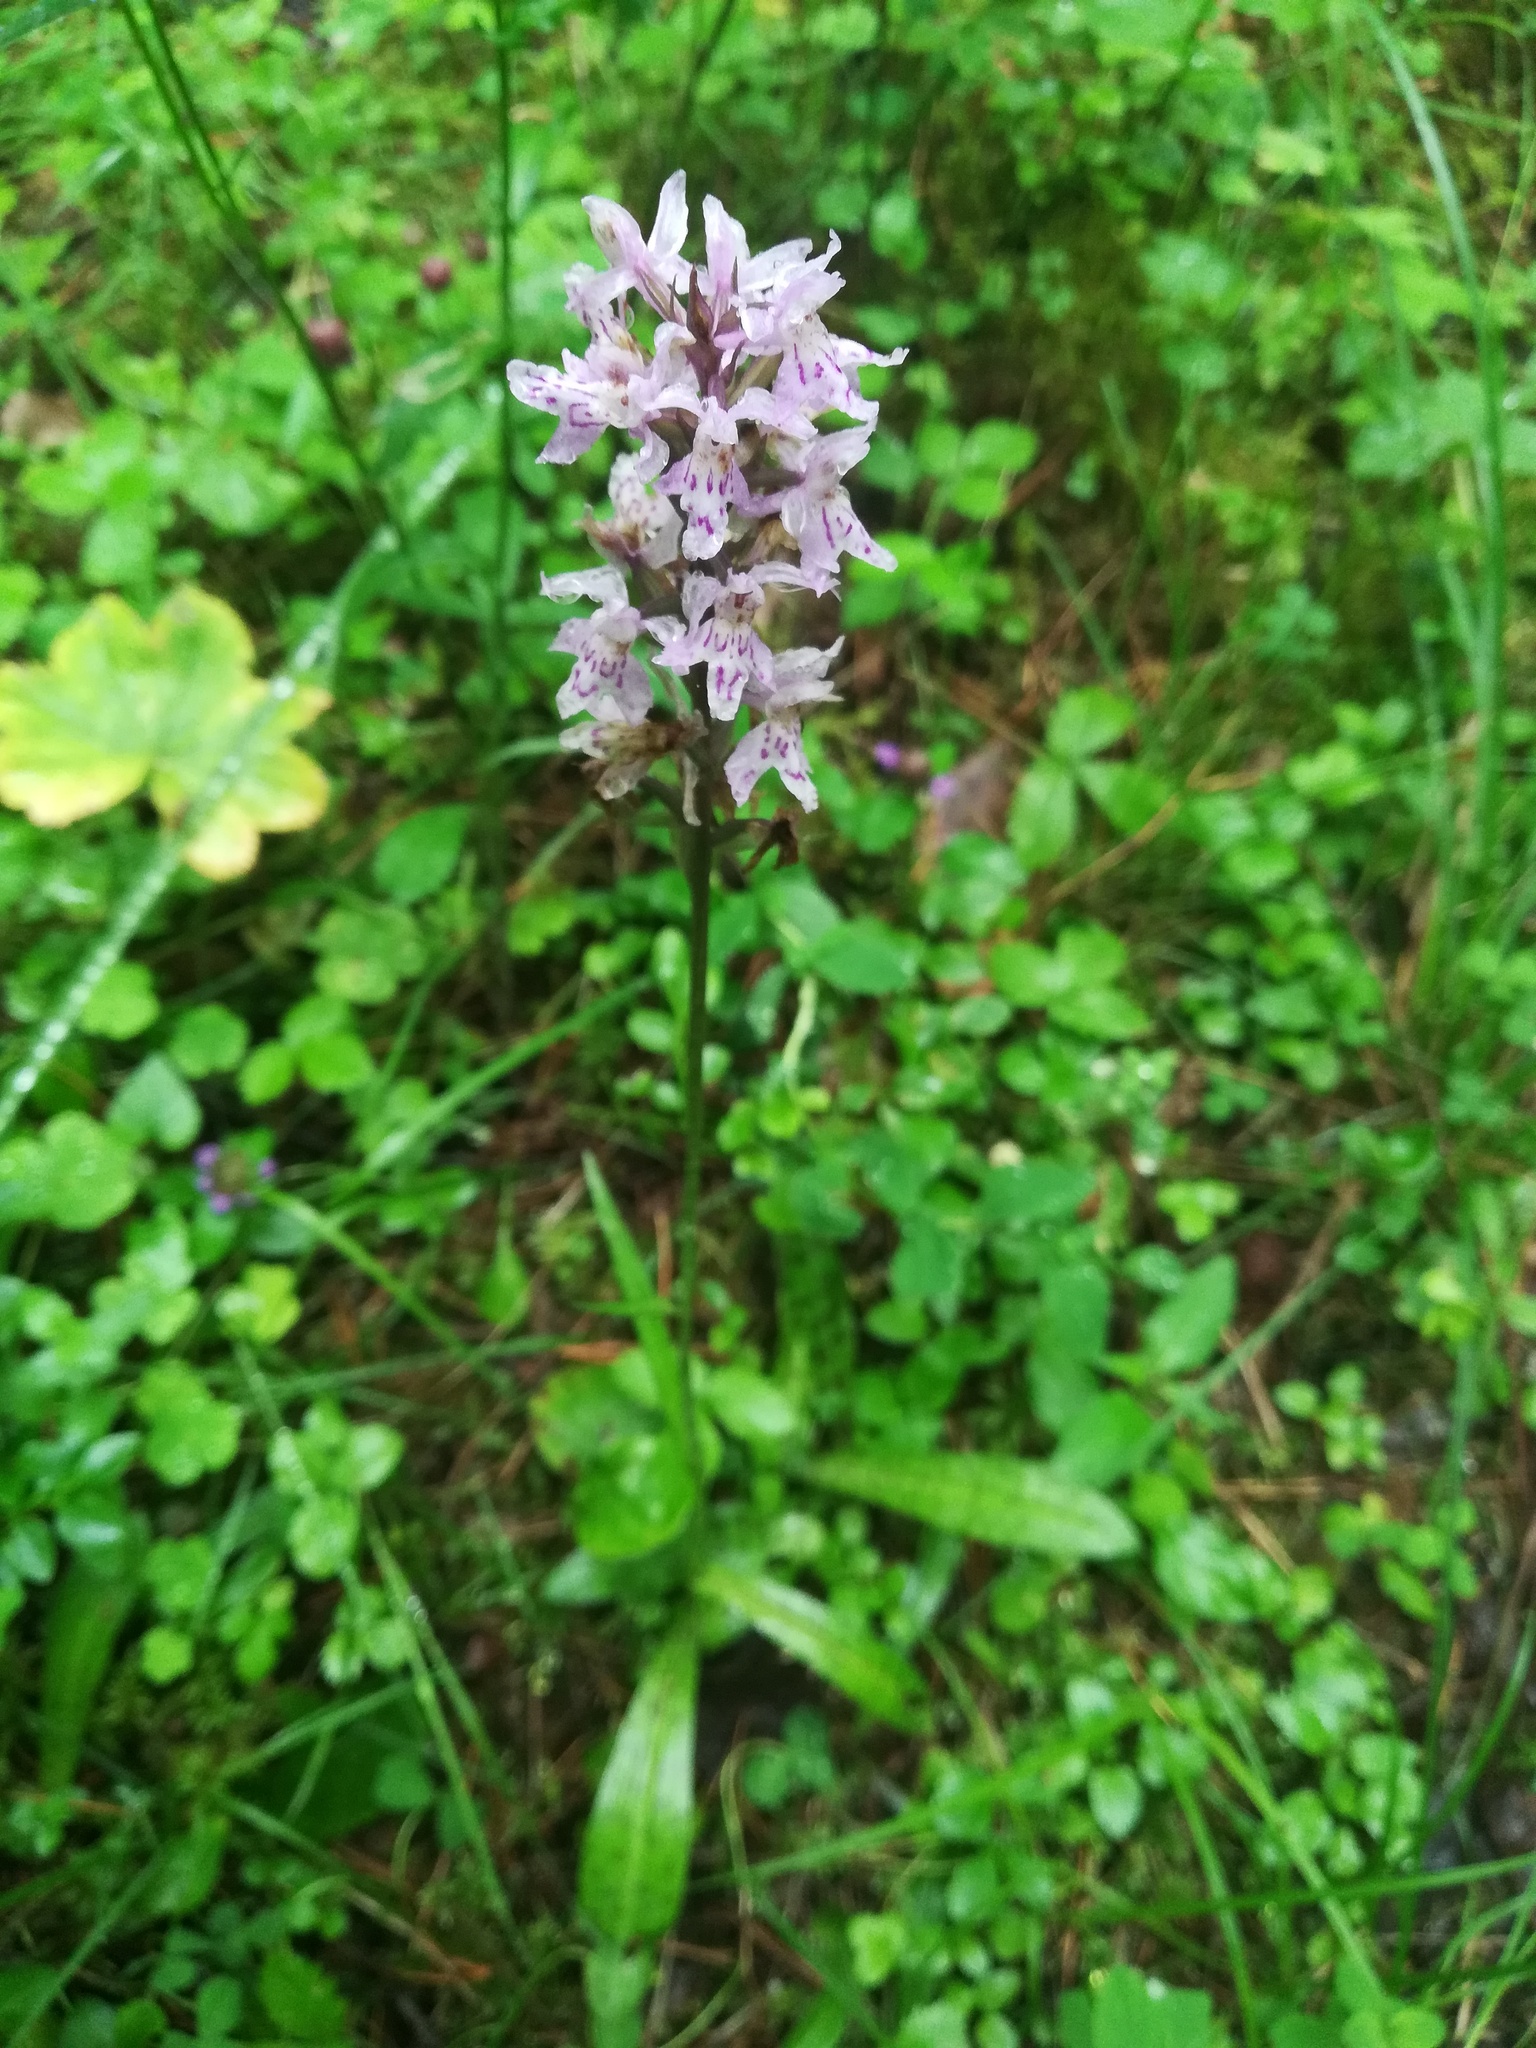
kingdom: Plantae
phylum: Tracheophyta
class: Liliopsida
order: Asparagales
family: Orchidaceae
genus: Dactylorhiza
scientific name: Dactylorhiza maculata
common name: Heath spotted-orchid
